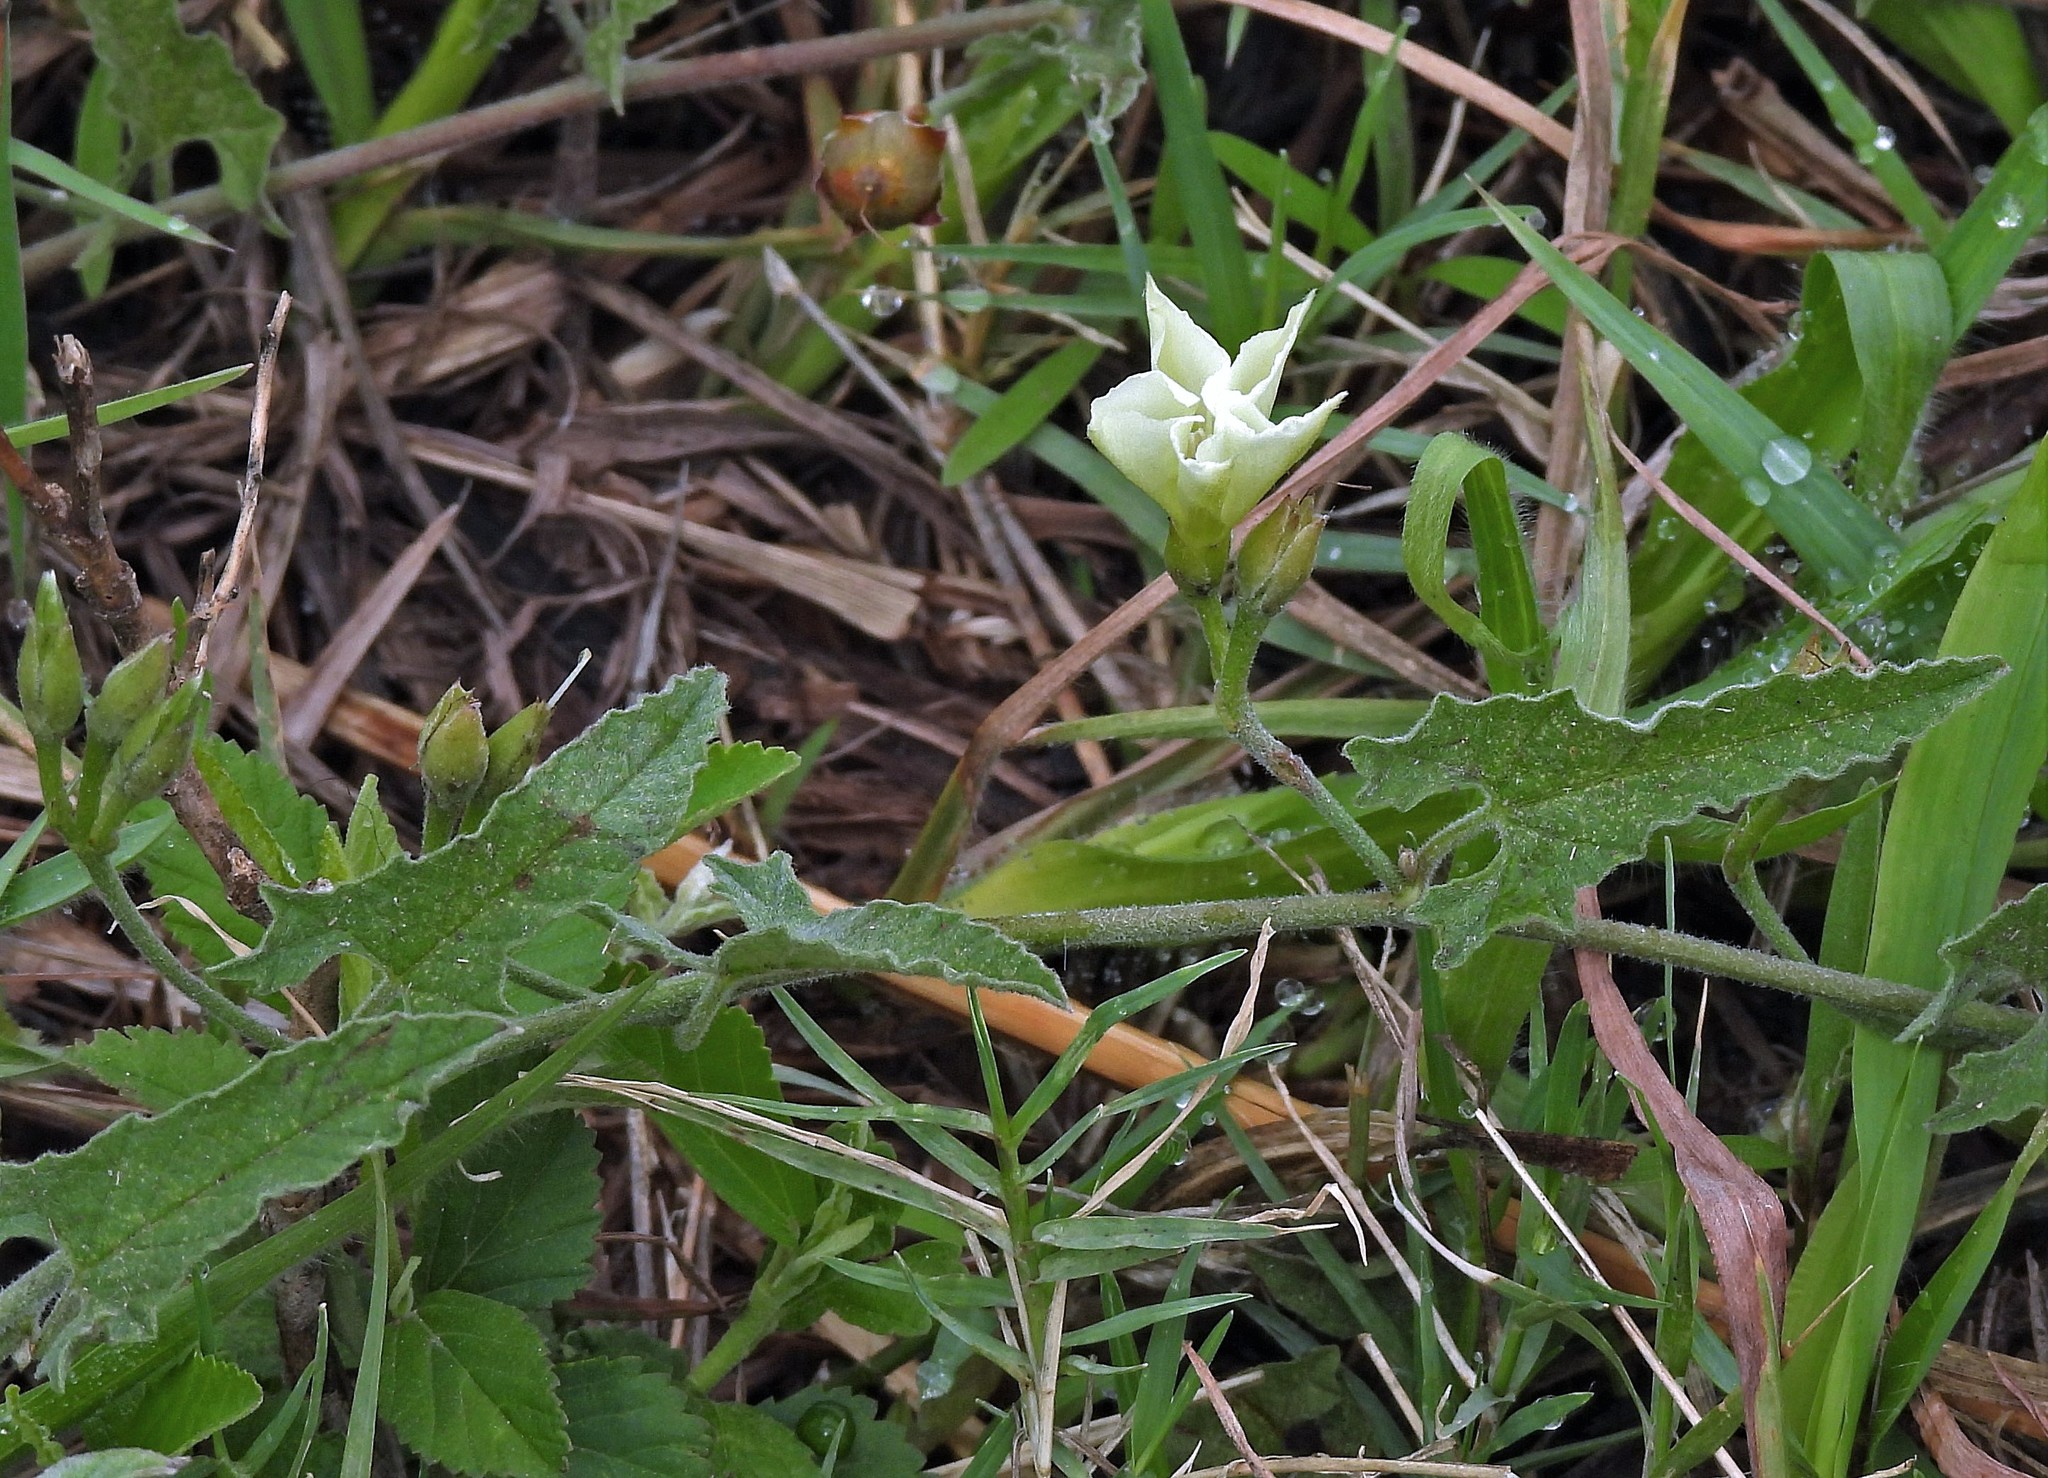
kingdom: Plantae
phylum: Tracheophyta
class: Magnoliopsida
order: Solanales
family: Convolvulaceae
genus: Convolvulus
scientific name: Convolvulus crenatifolius
